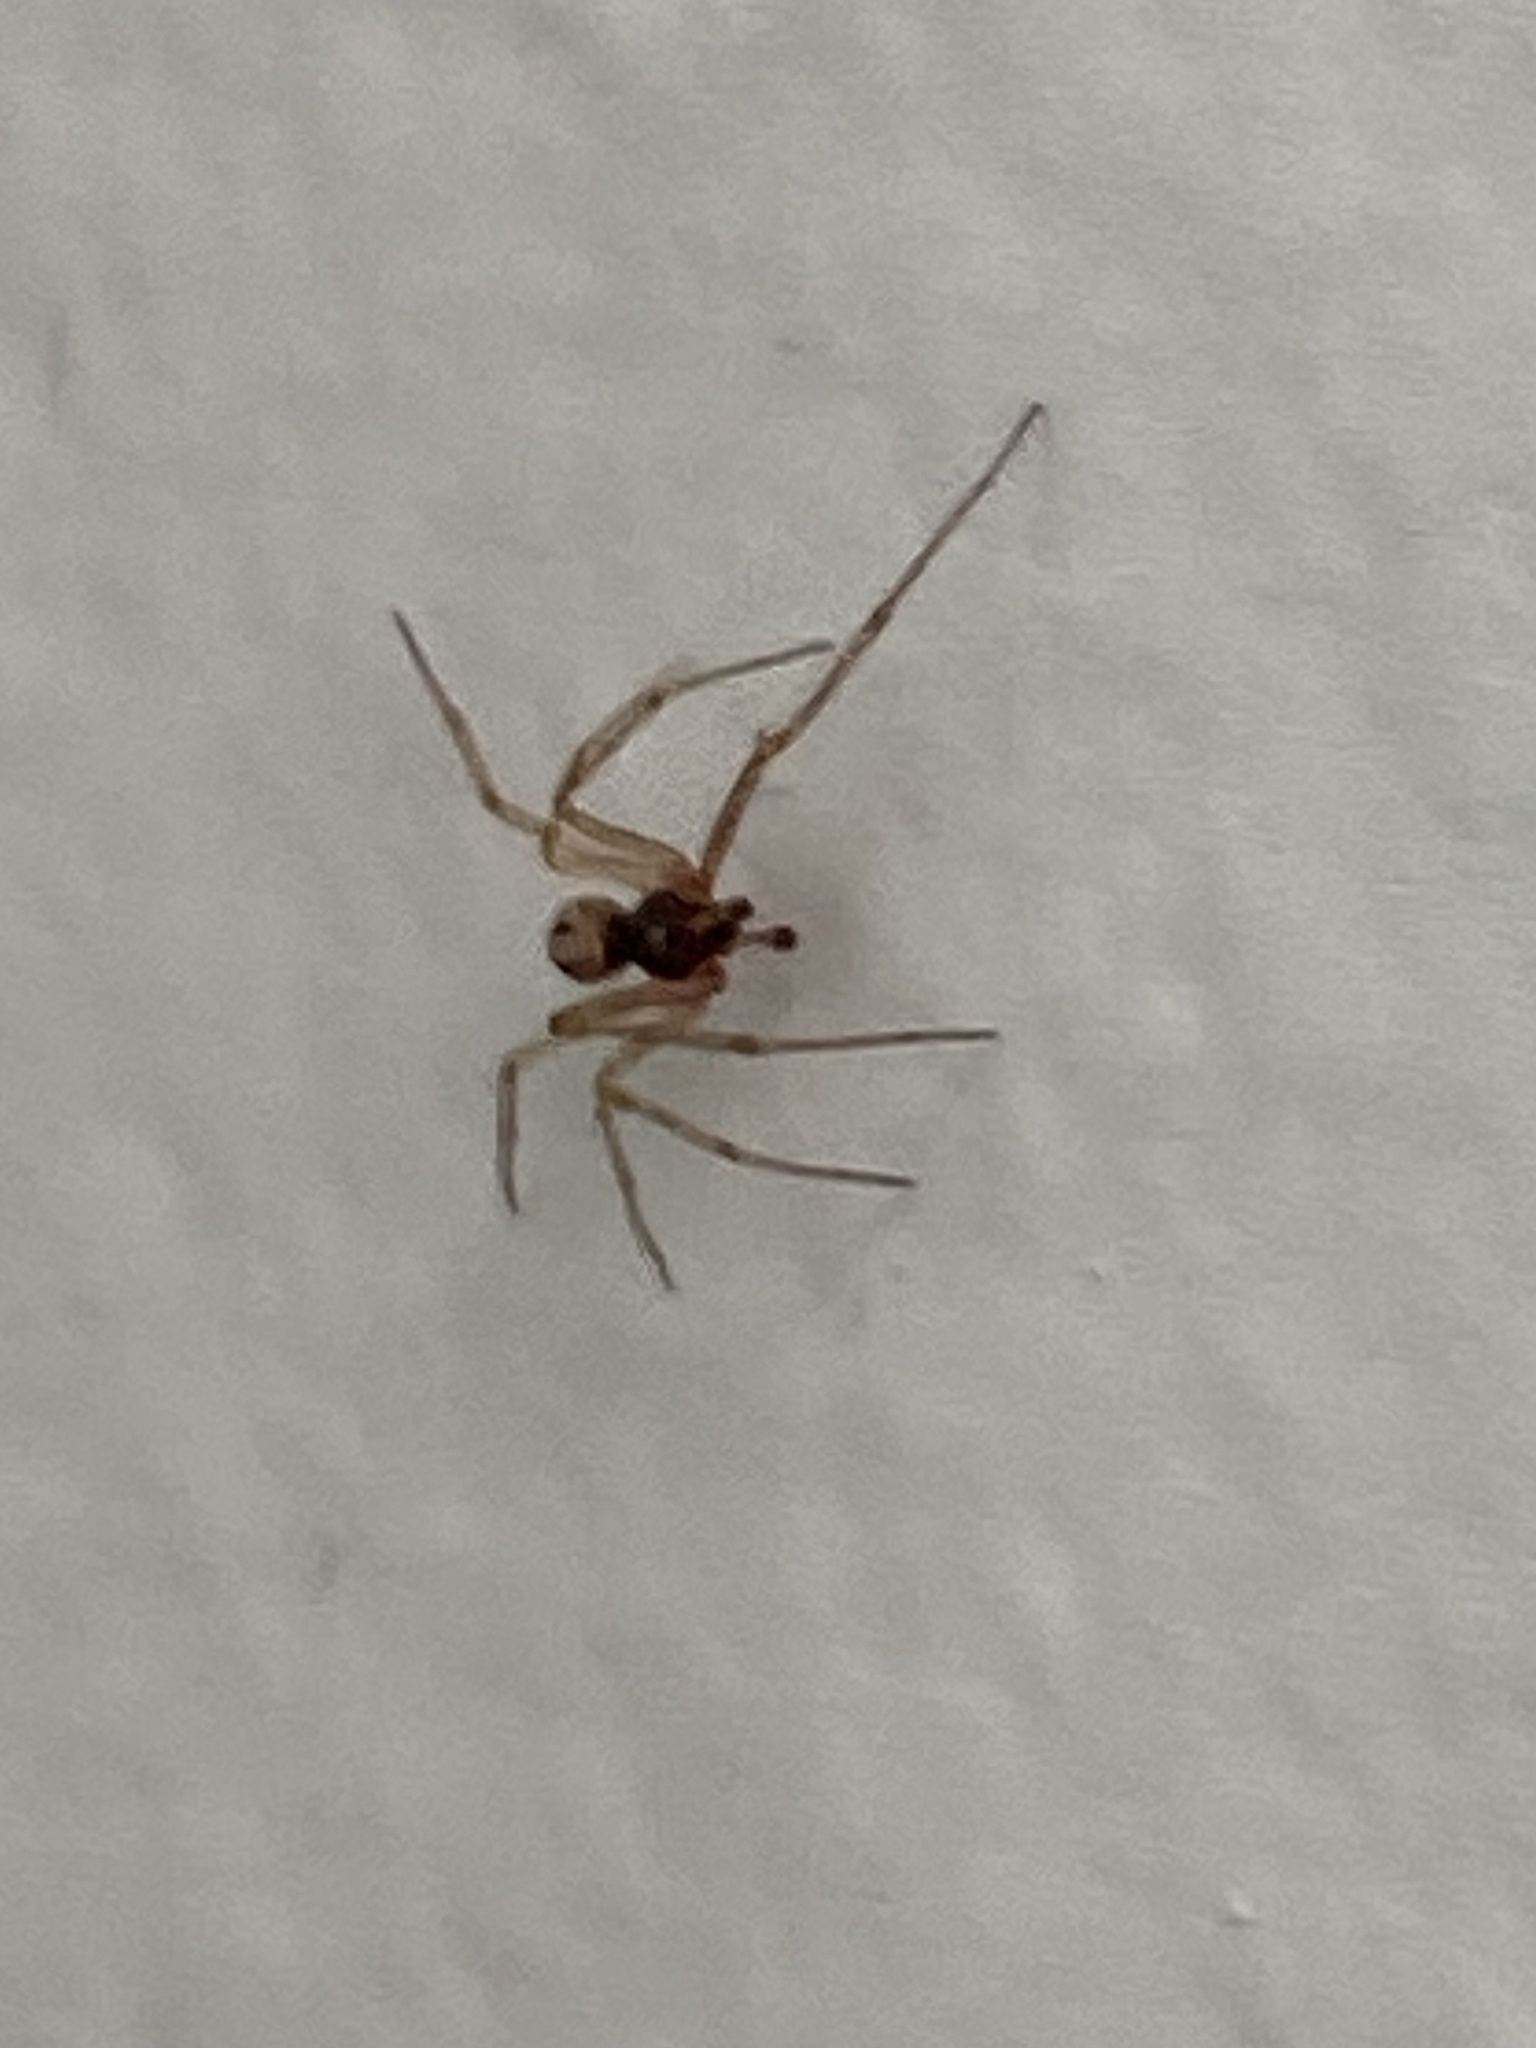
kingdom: Animalia
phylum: Arthropoda
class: Arachnida
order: Araneae
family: Theridiidae
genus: Steatoda
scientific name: Steatoda triangulosa
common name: Triangulate bud spider
